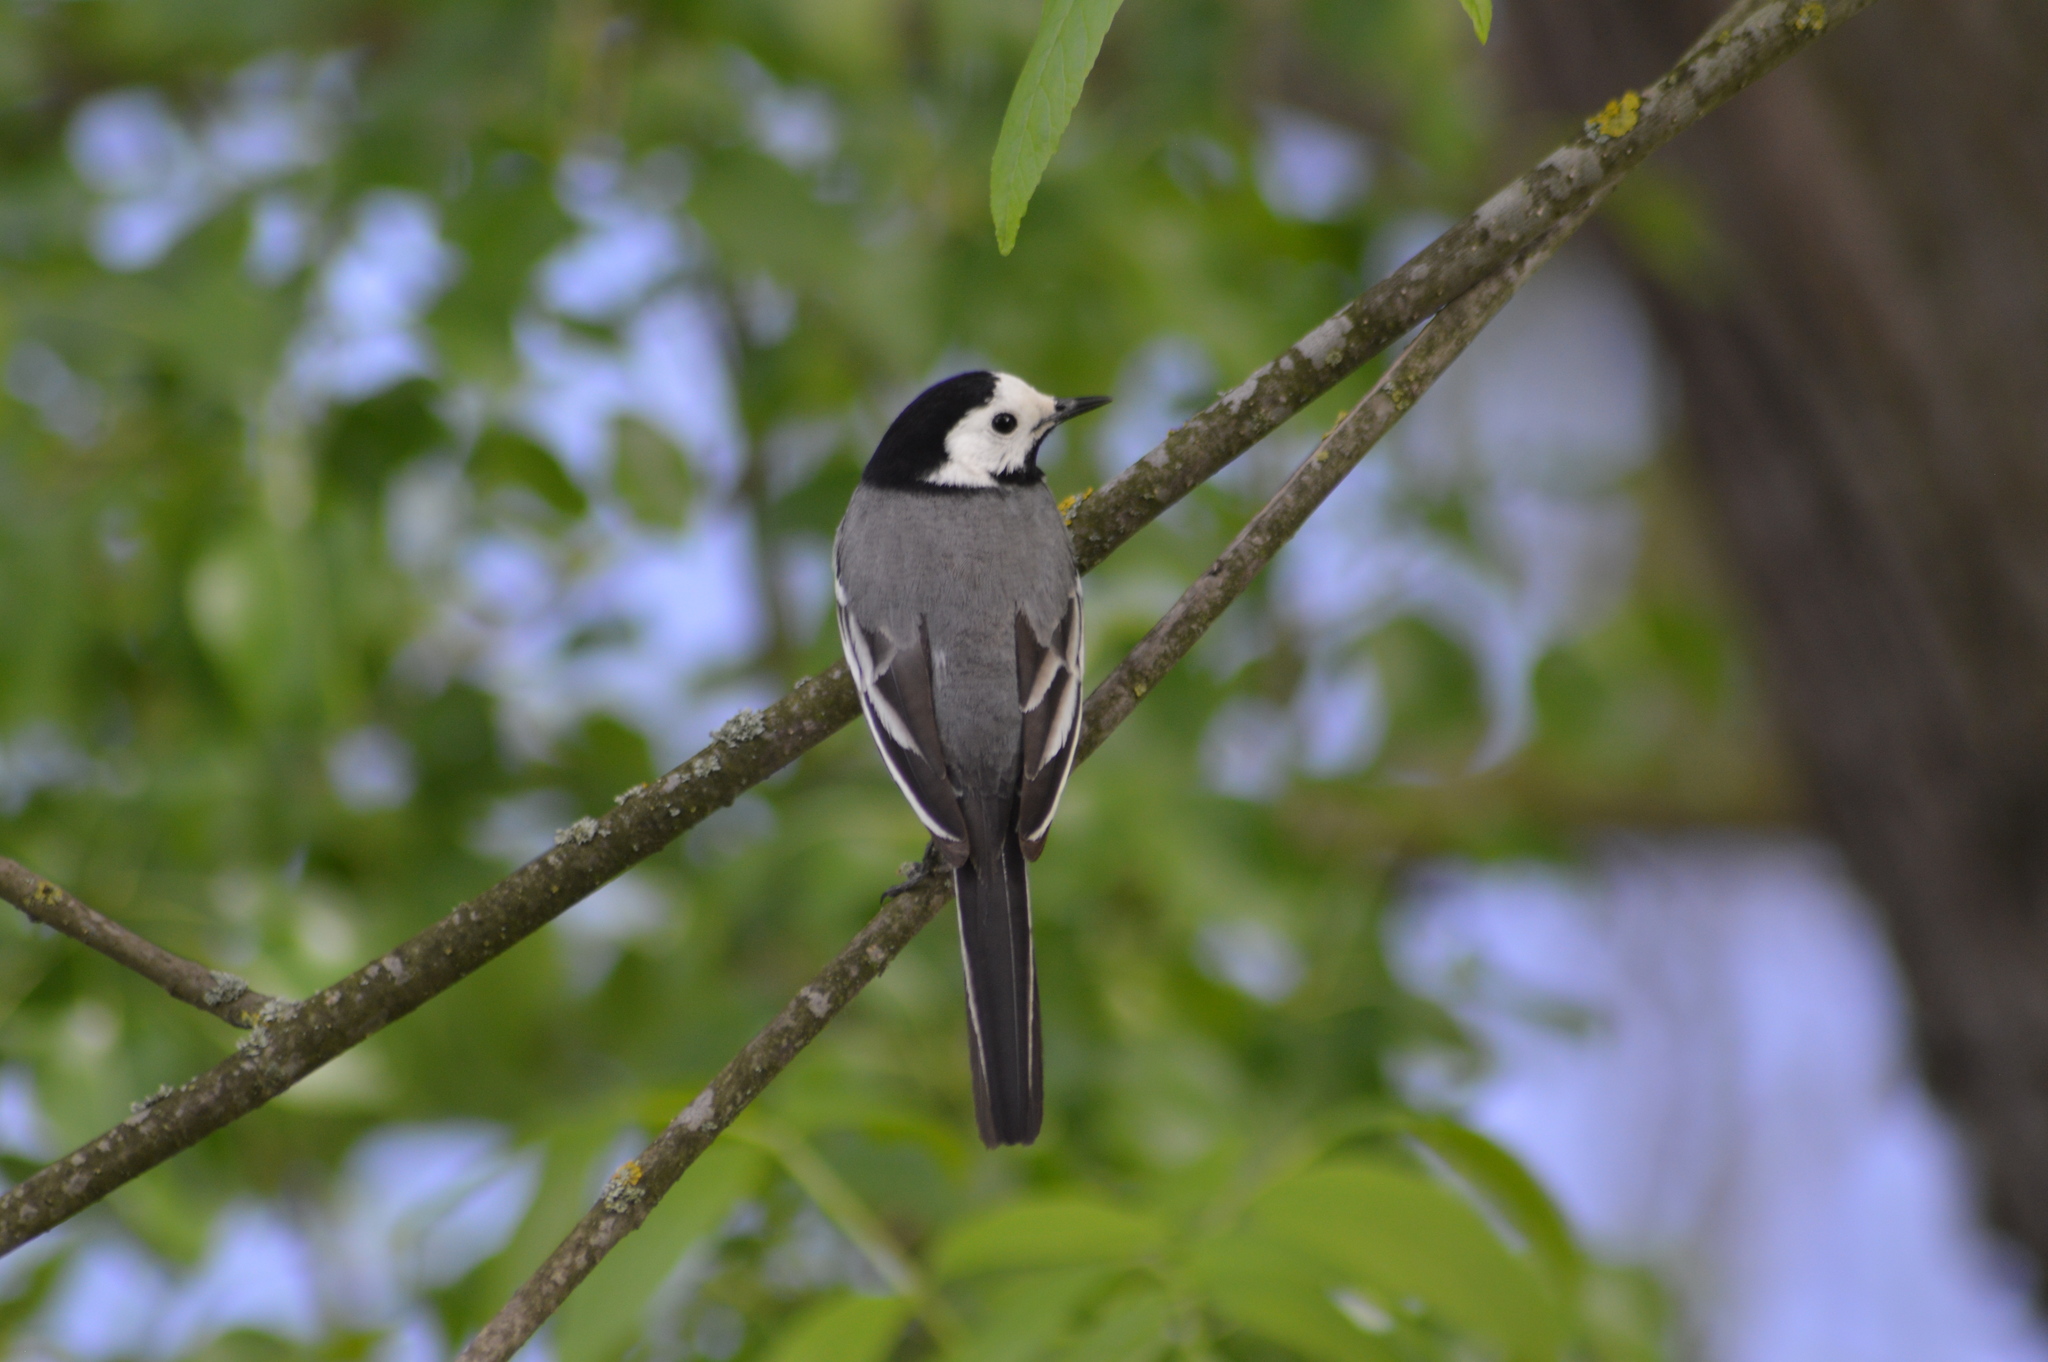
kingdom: Animalia
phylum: Chordata
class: Aves
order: Passeriformes
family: Motacillidae
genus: Motacilla
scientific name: Motacilla alba
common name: White wagtail
